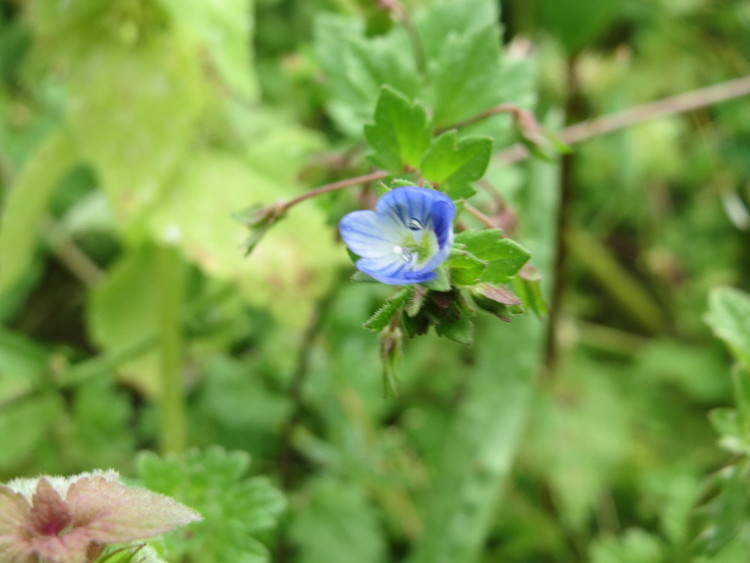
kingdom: Plantae
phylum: Tracheophyta
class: Magnoliopsida
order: Lamiales
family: Plantaginaceae
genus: Veronica
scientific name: Veronica persica
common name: Common field-speedwell
